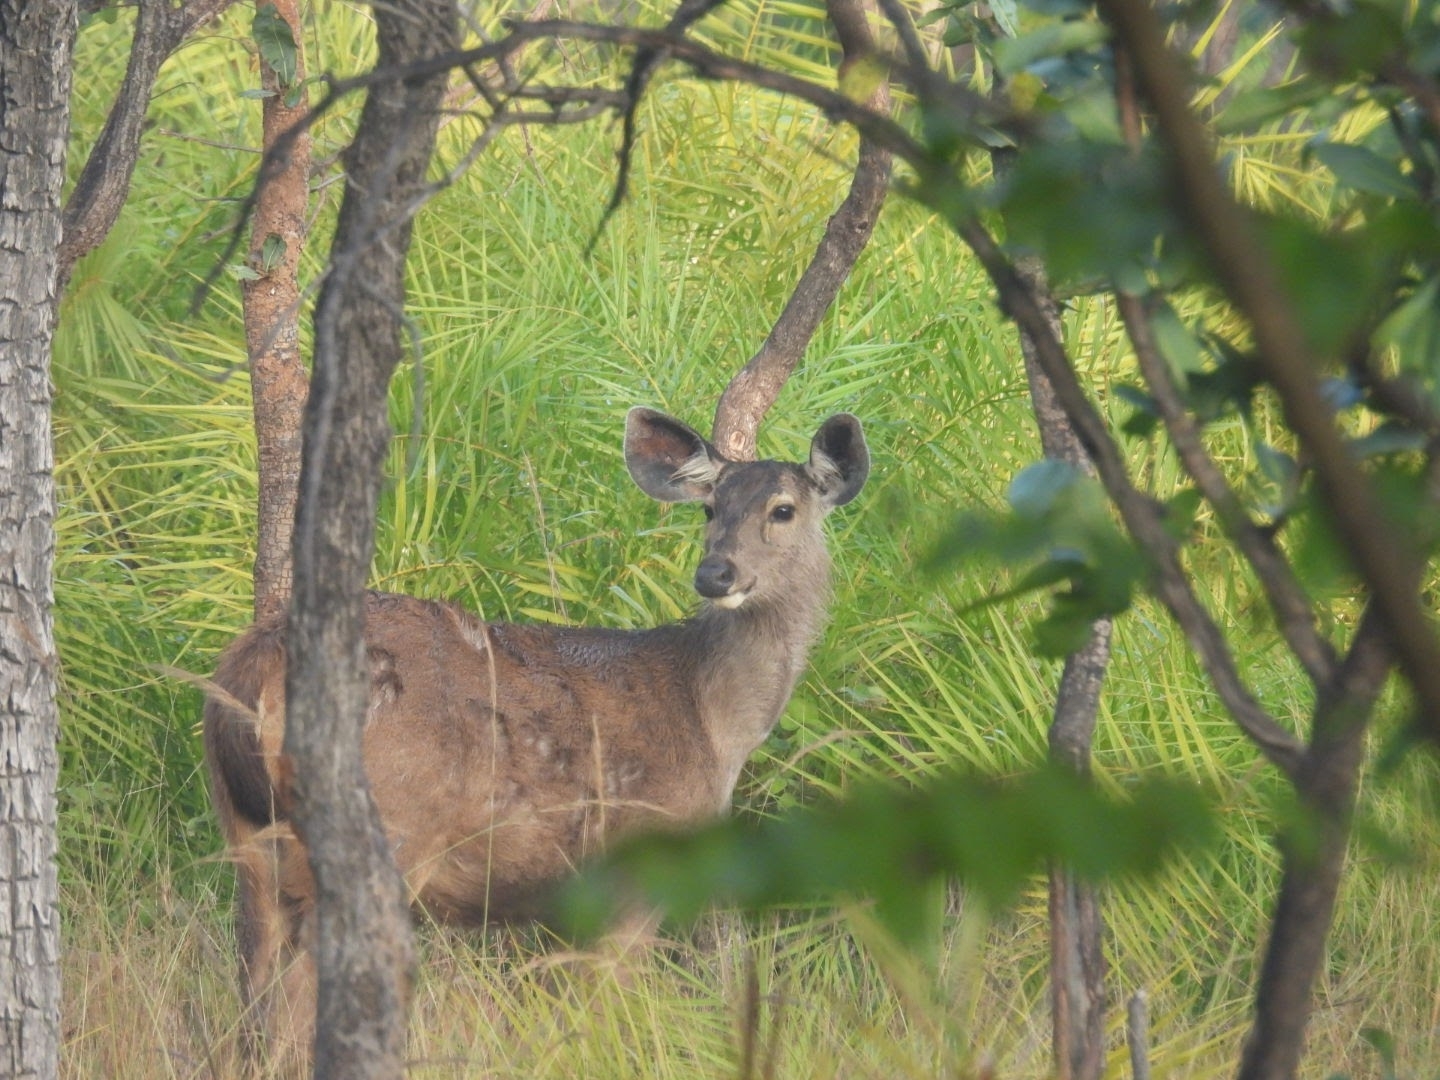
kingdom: Animalia
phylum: Chordata
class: Mammalia
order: Artiodactyla
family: Cervidae
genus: Rusa
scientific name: Rusa unicolor
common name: Sambar
